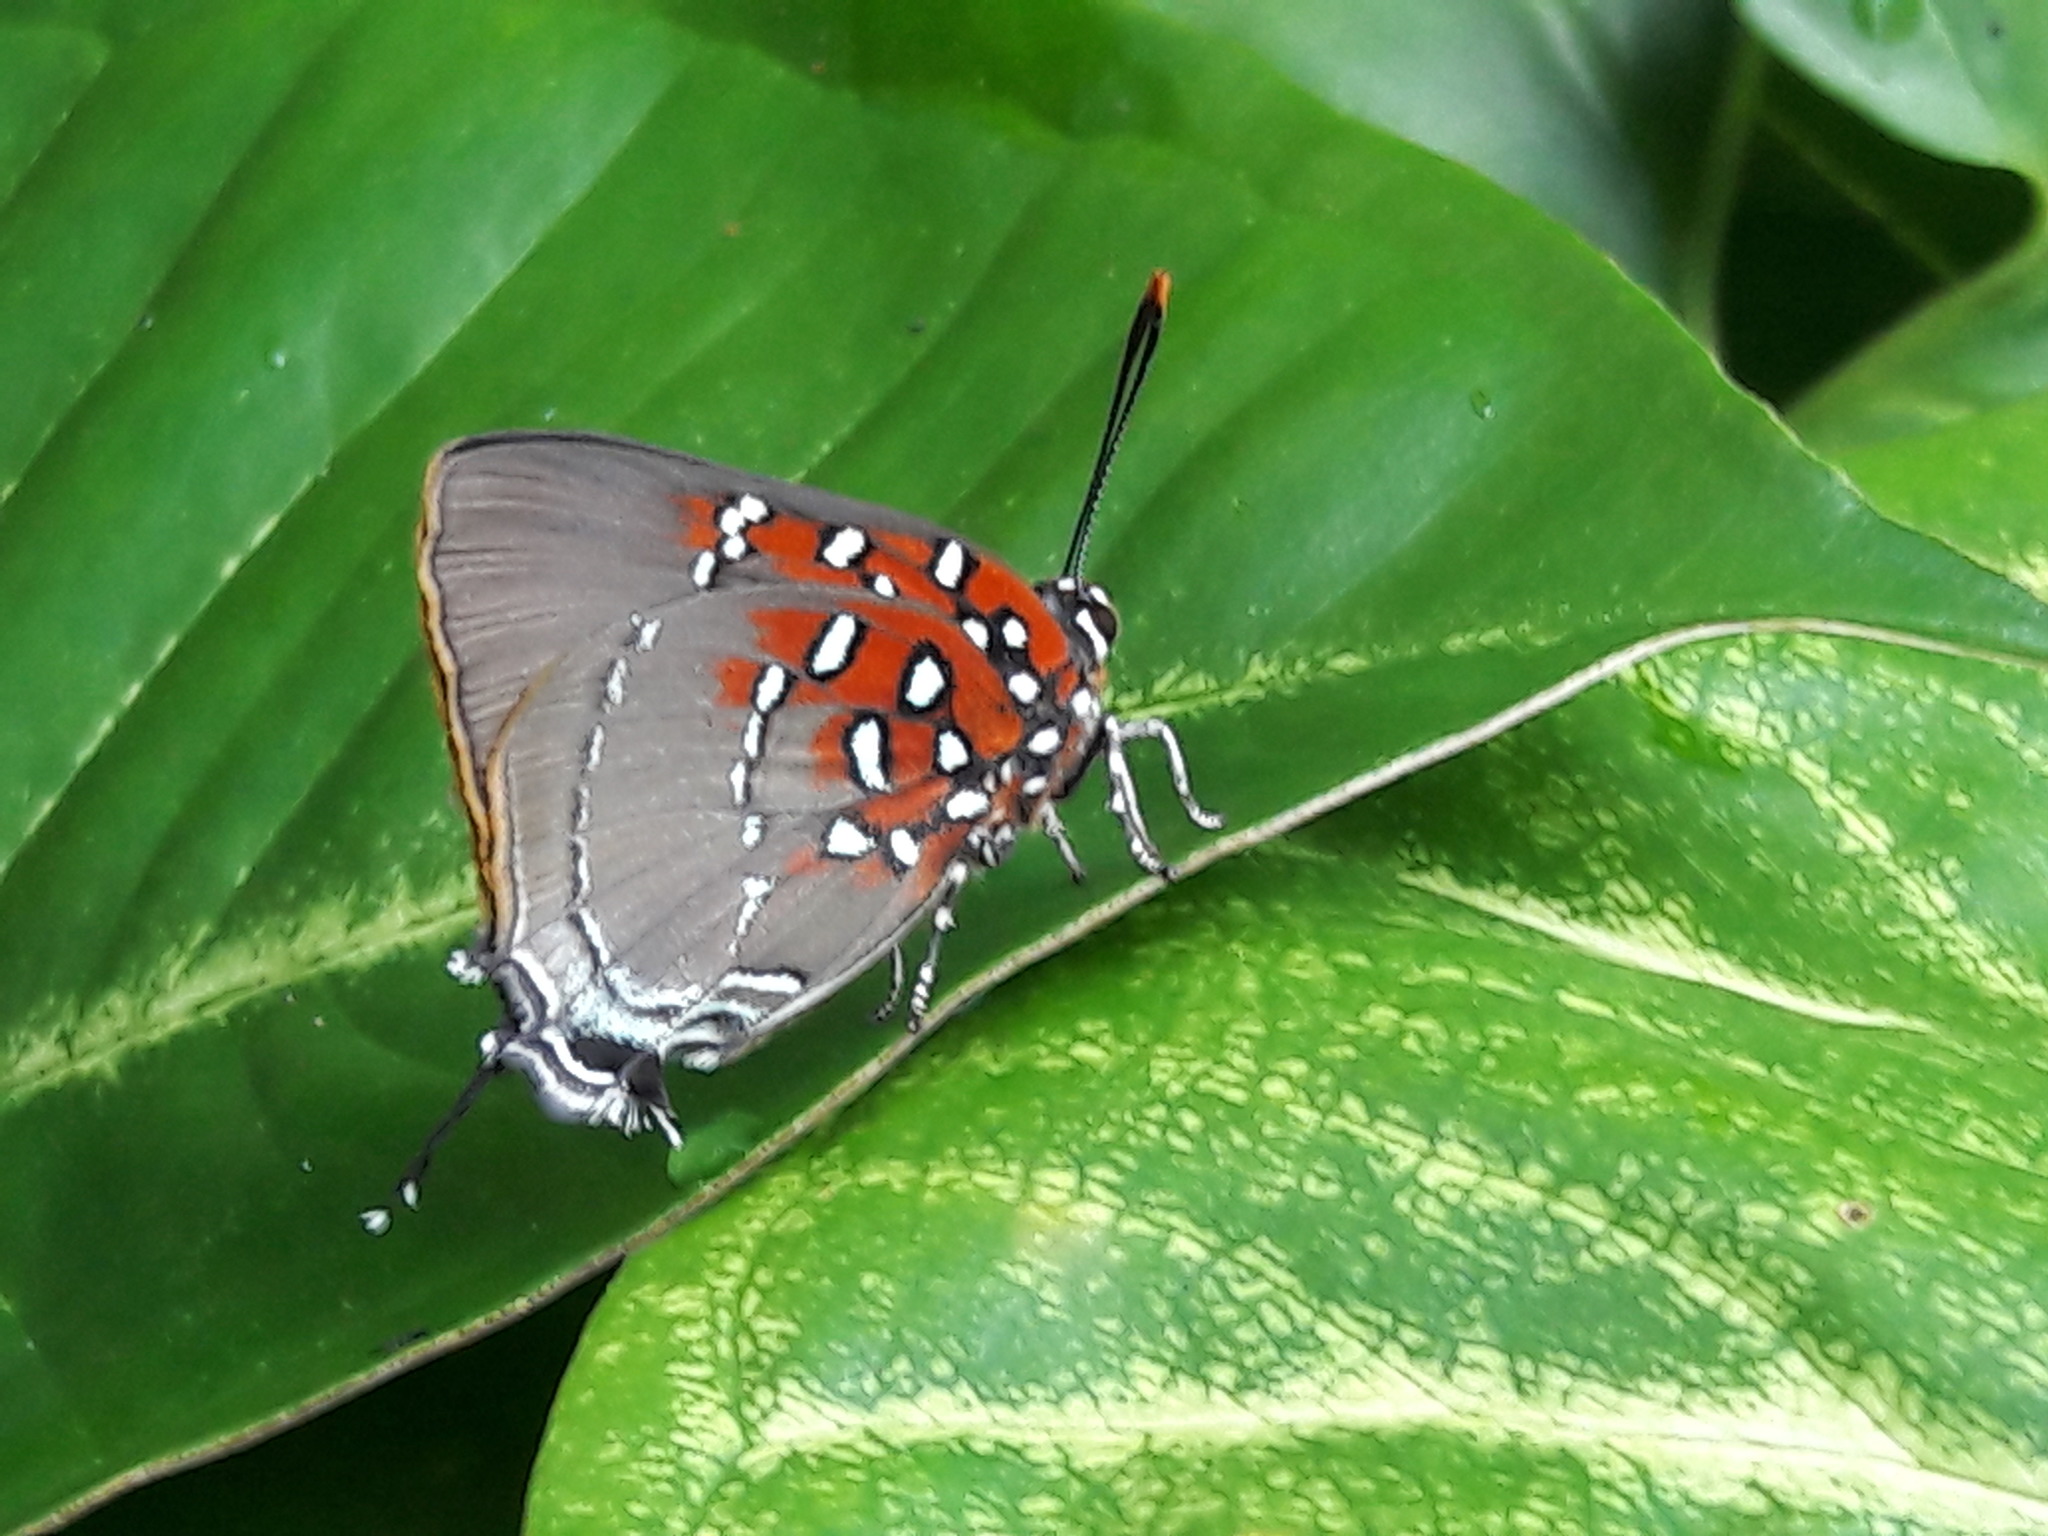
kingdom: Animalia
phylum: Arthropoda
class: Insecta
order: Lepidoptera
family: Lycaenidae
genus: Atlides
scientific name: Atlides
